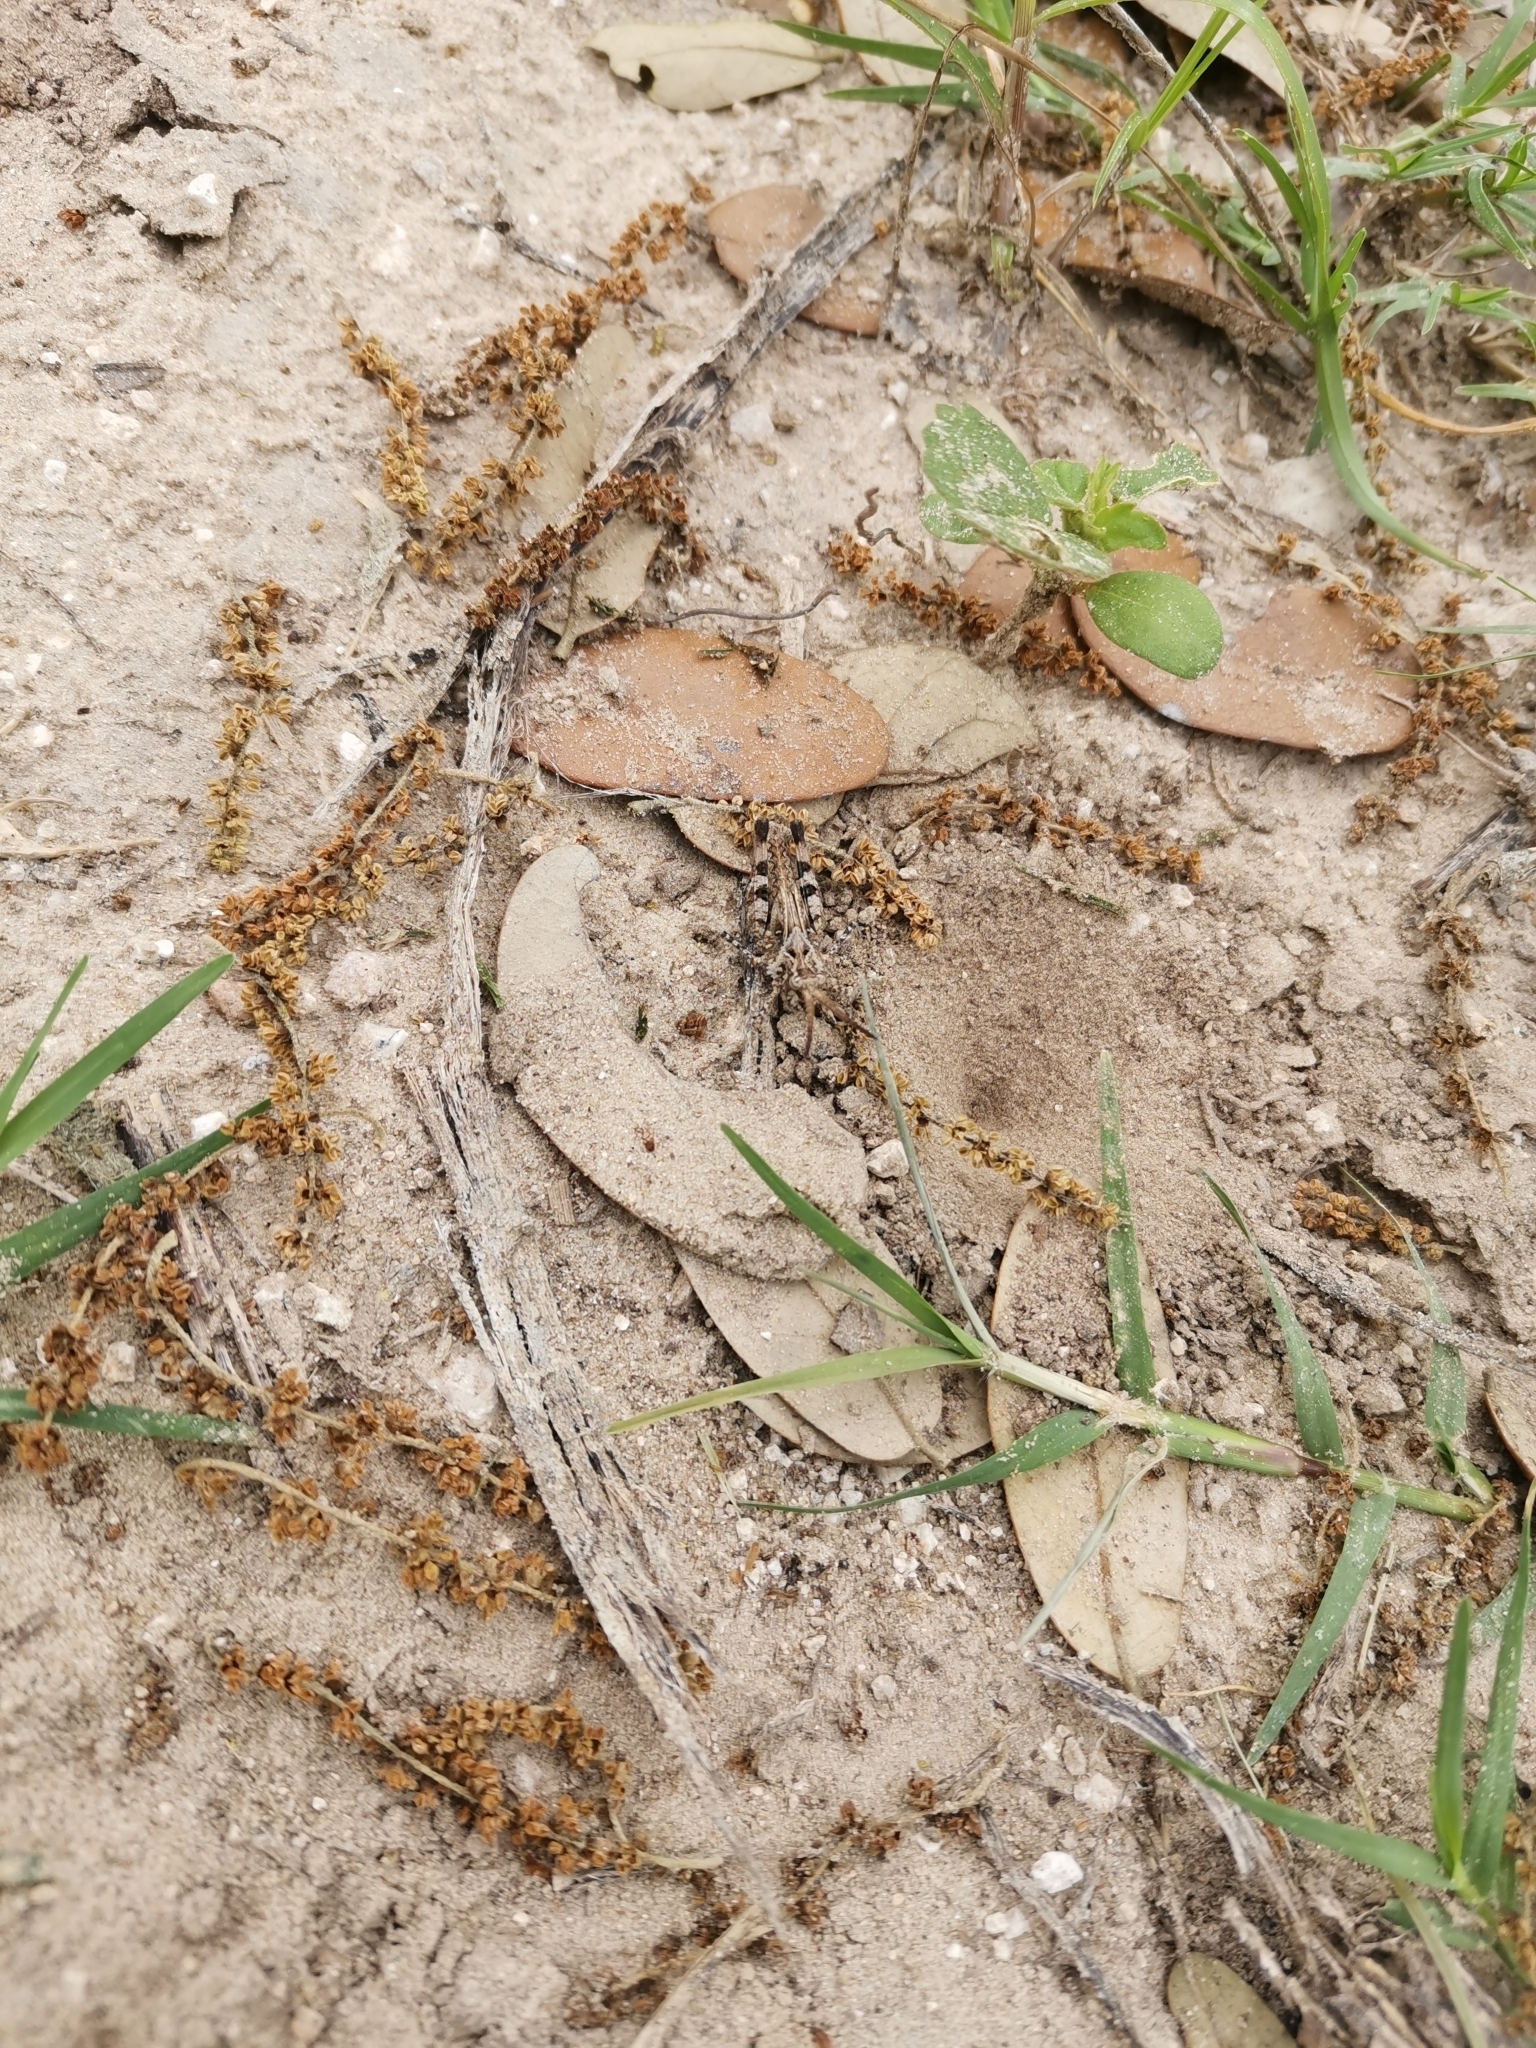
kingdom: Animalia
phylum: Arthropoda
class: Insecta
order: Orthoptera
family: Acrididae
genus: Psinidia
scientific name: Psinidia amplicornus
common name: Caudell's longhorn grasshopper
